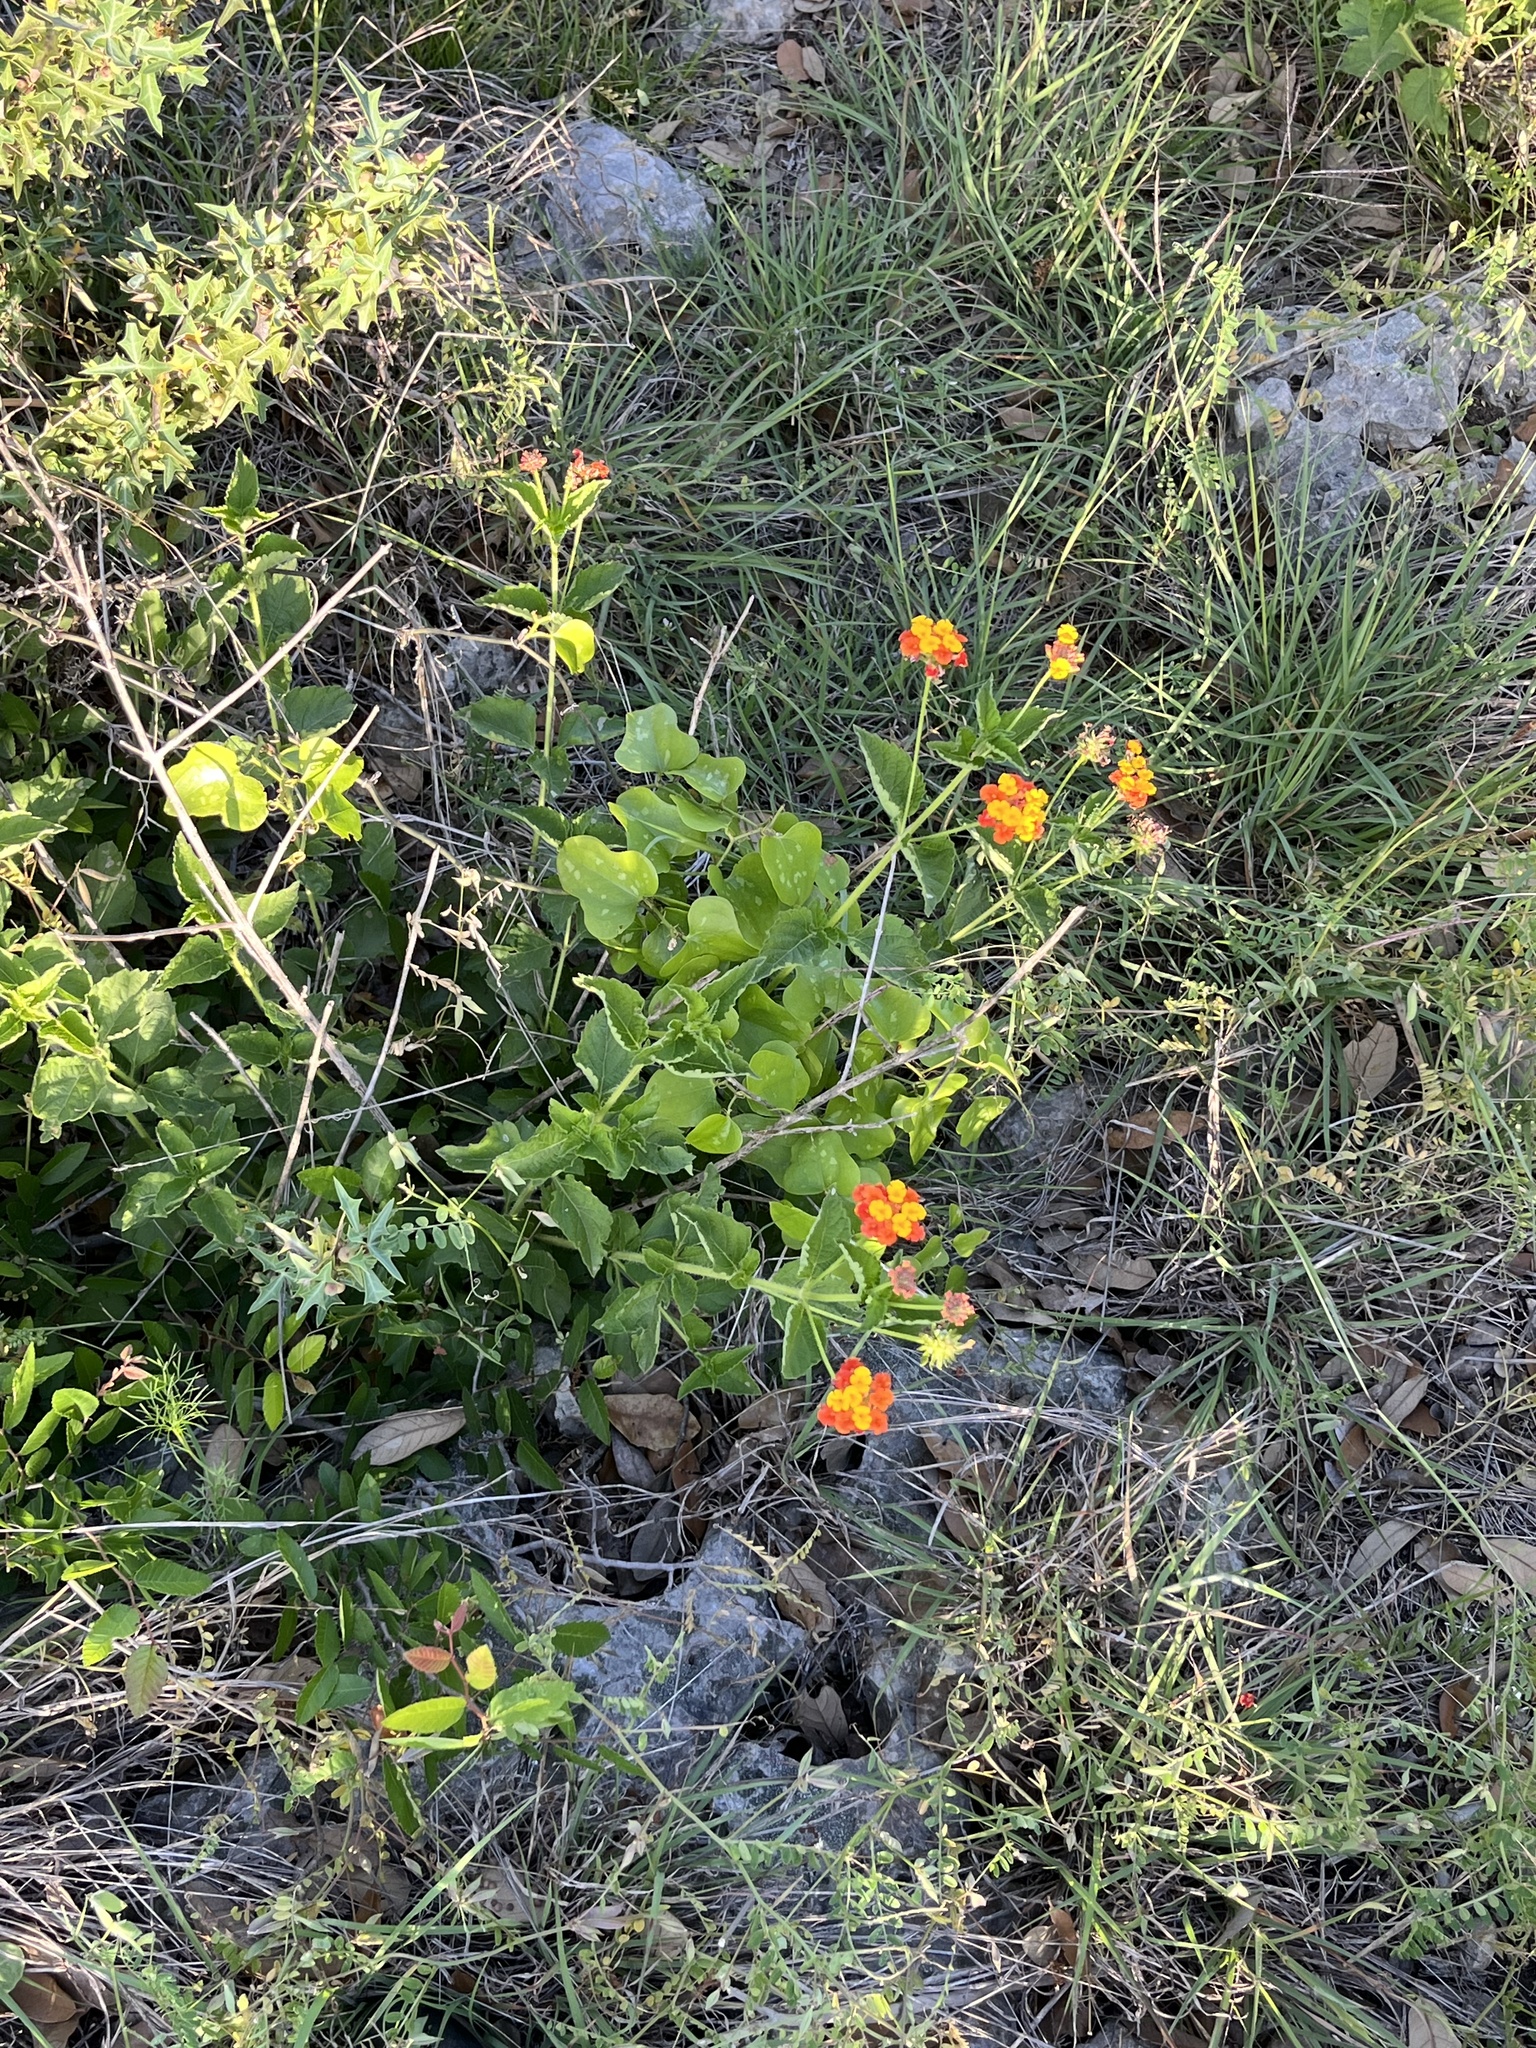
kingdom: Plantae
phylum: Tracheophyta
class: Magnoliopsida
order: Lamiales
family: Verbenaceae
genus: Lantana
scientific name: Lantana urticoides
